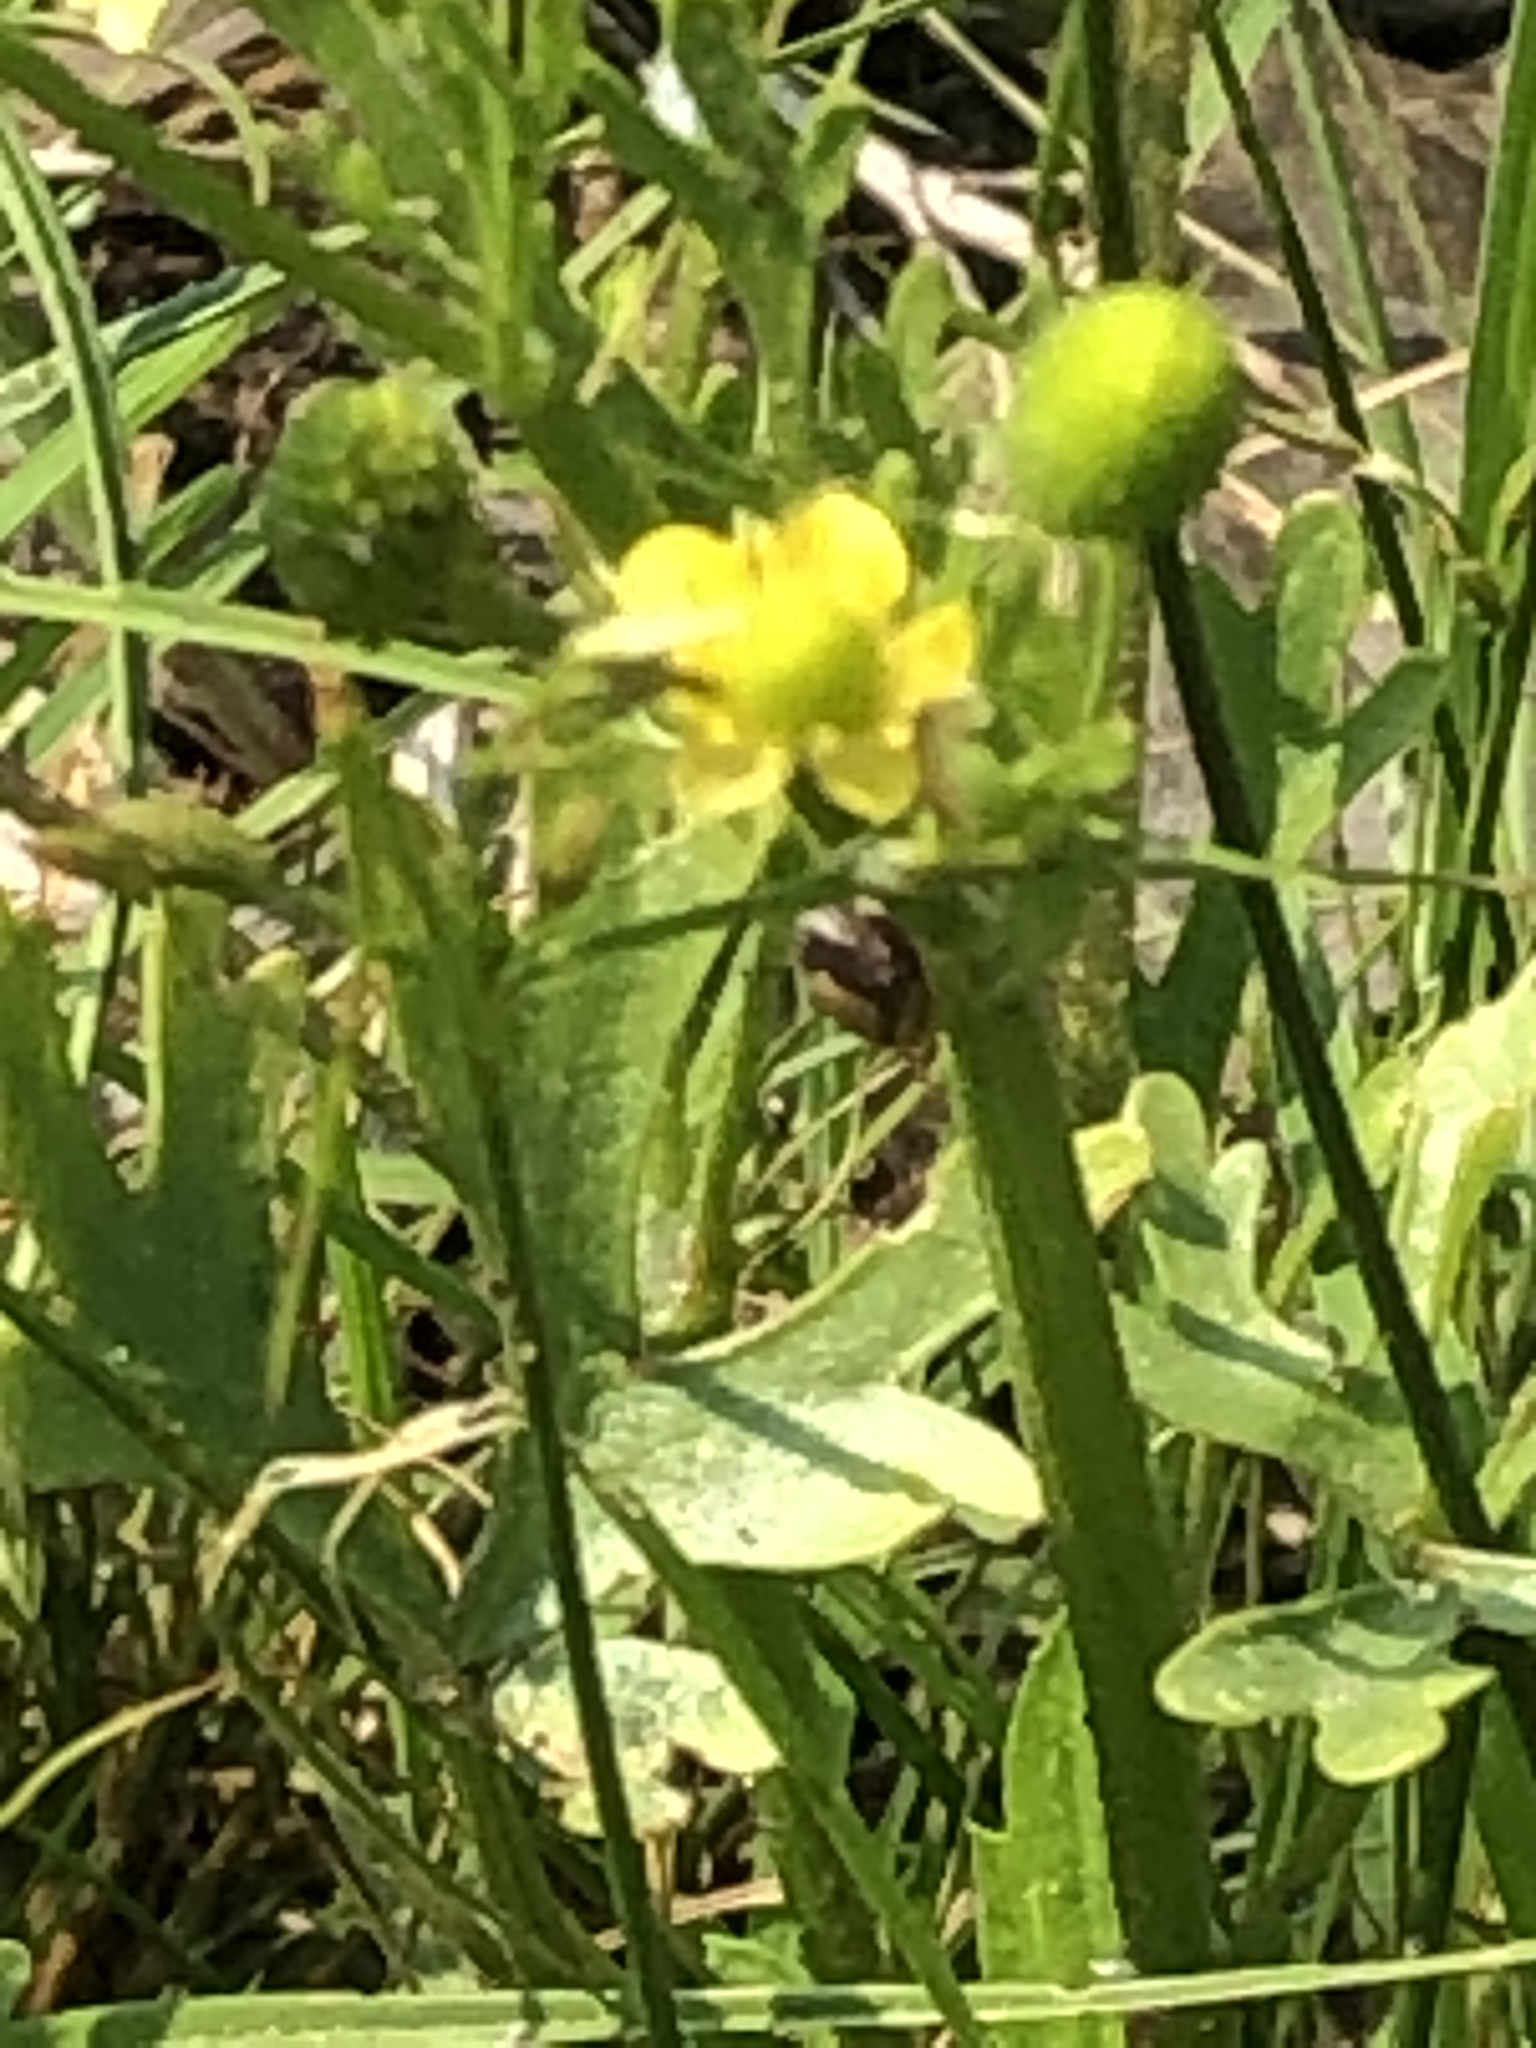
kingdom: Plantae
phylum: Tracheophyta
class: Magnoliopsida
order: Ranunculales
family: Ranunculaceae
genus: Ranunculus
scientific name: Ranunculus sceleratus
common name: Celery-leaved buttercup
